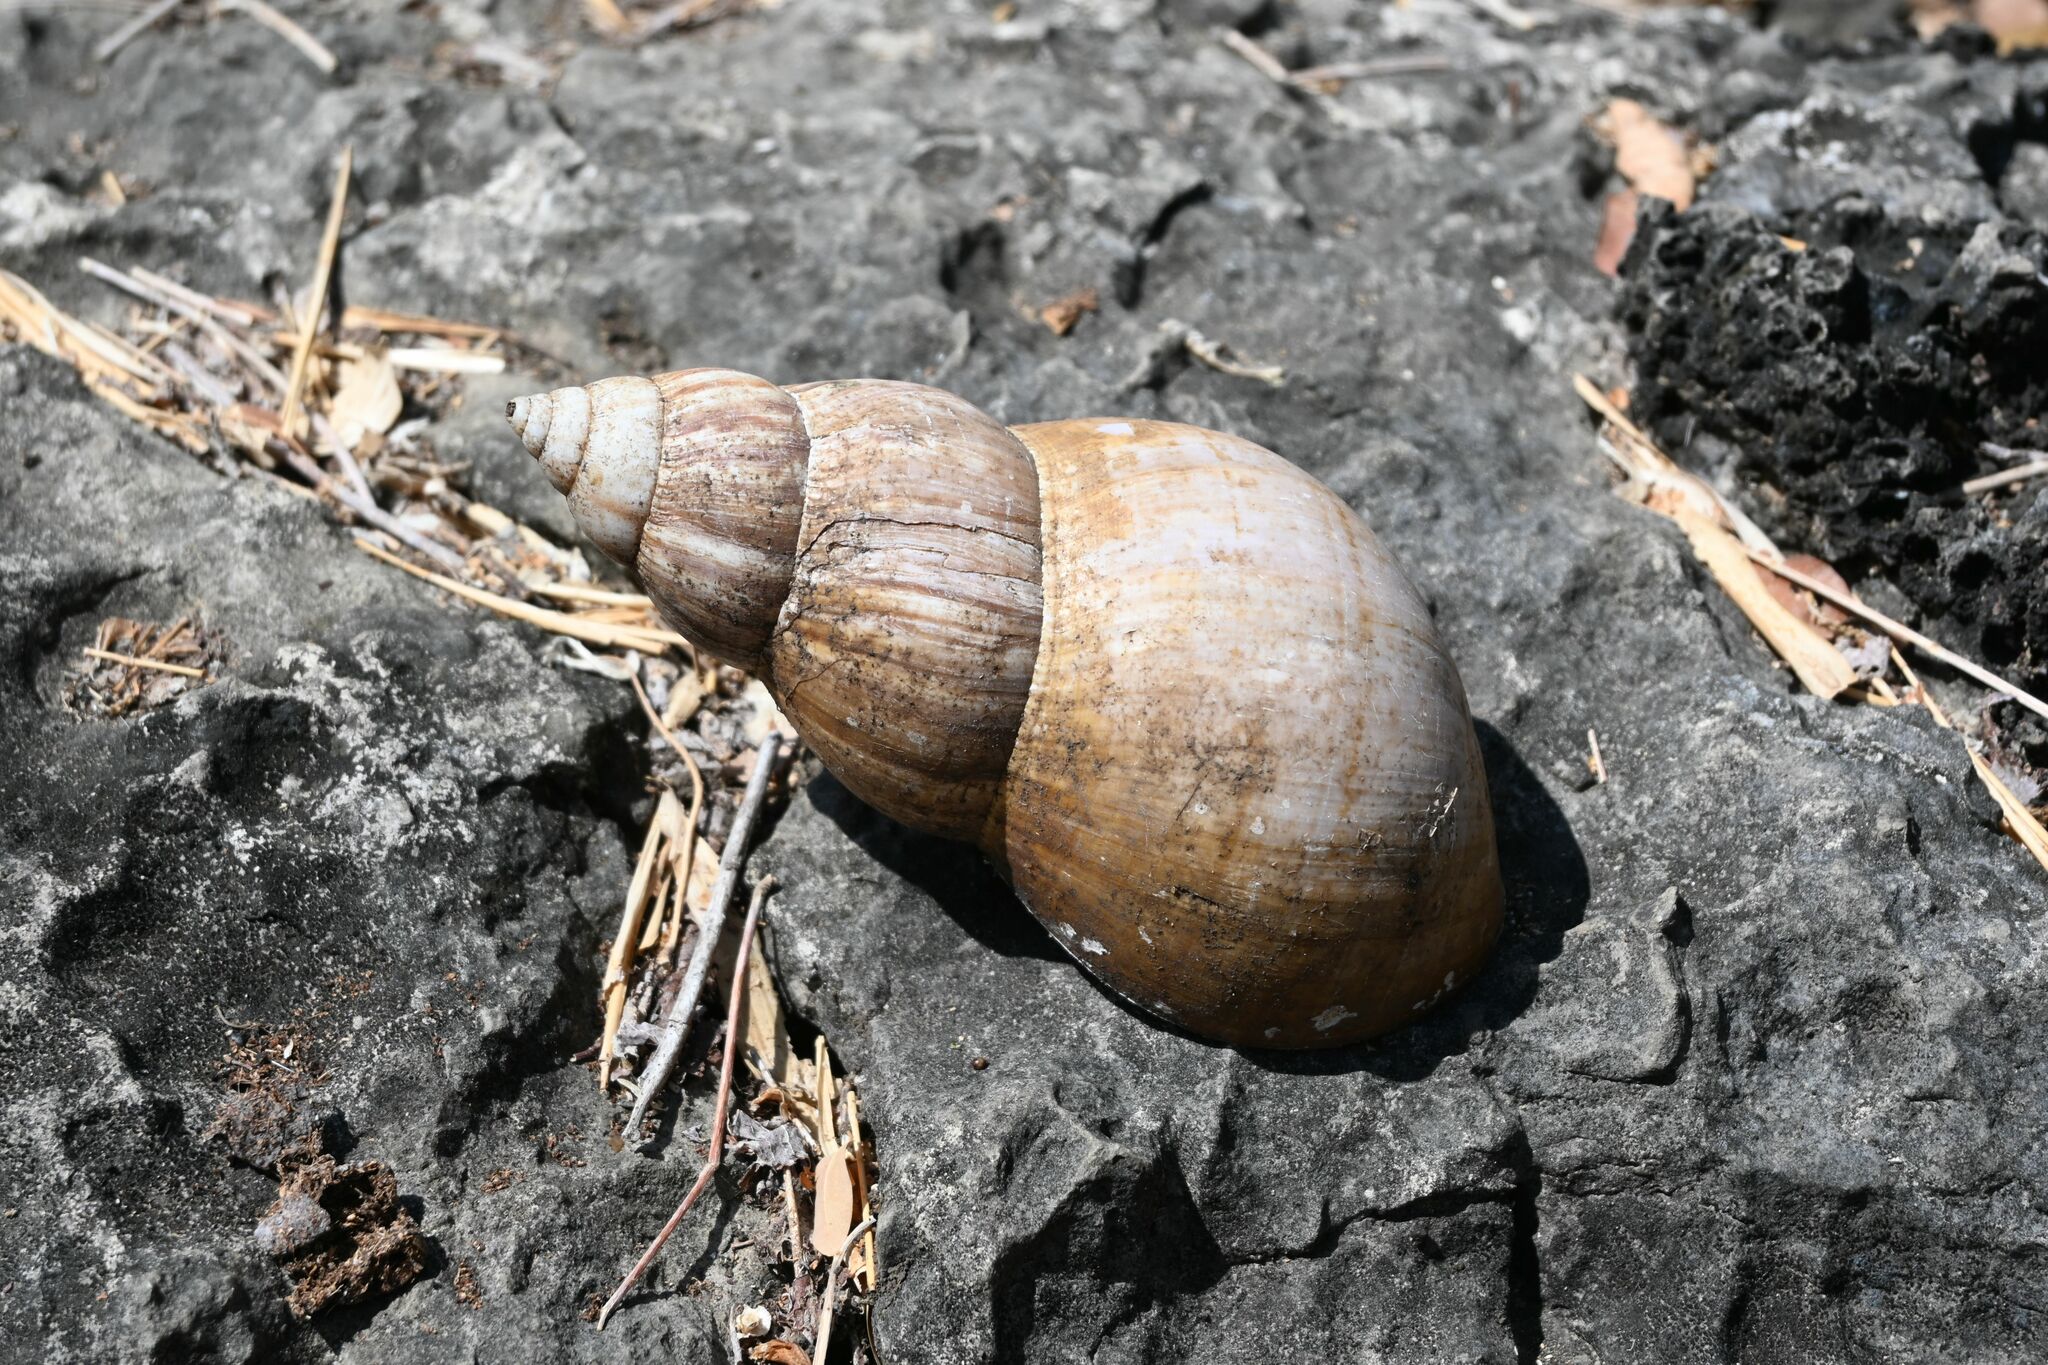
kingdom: Animalia
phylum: Mollusca
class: Gastropoda
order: Stylommatophora
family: Achatinidae
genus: Lissachatina
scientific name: Lissachatina fulica
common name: Giant african snail
